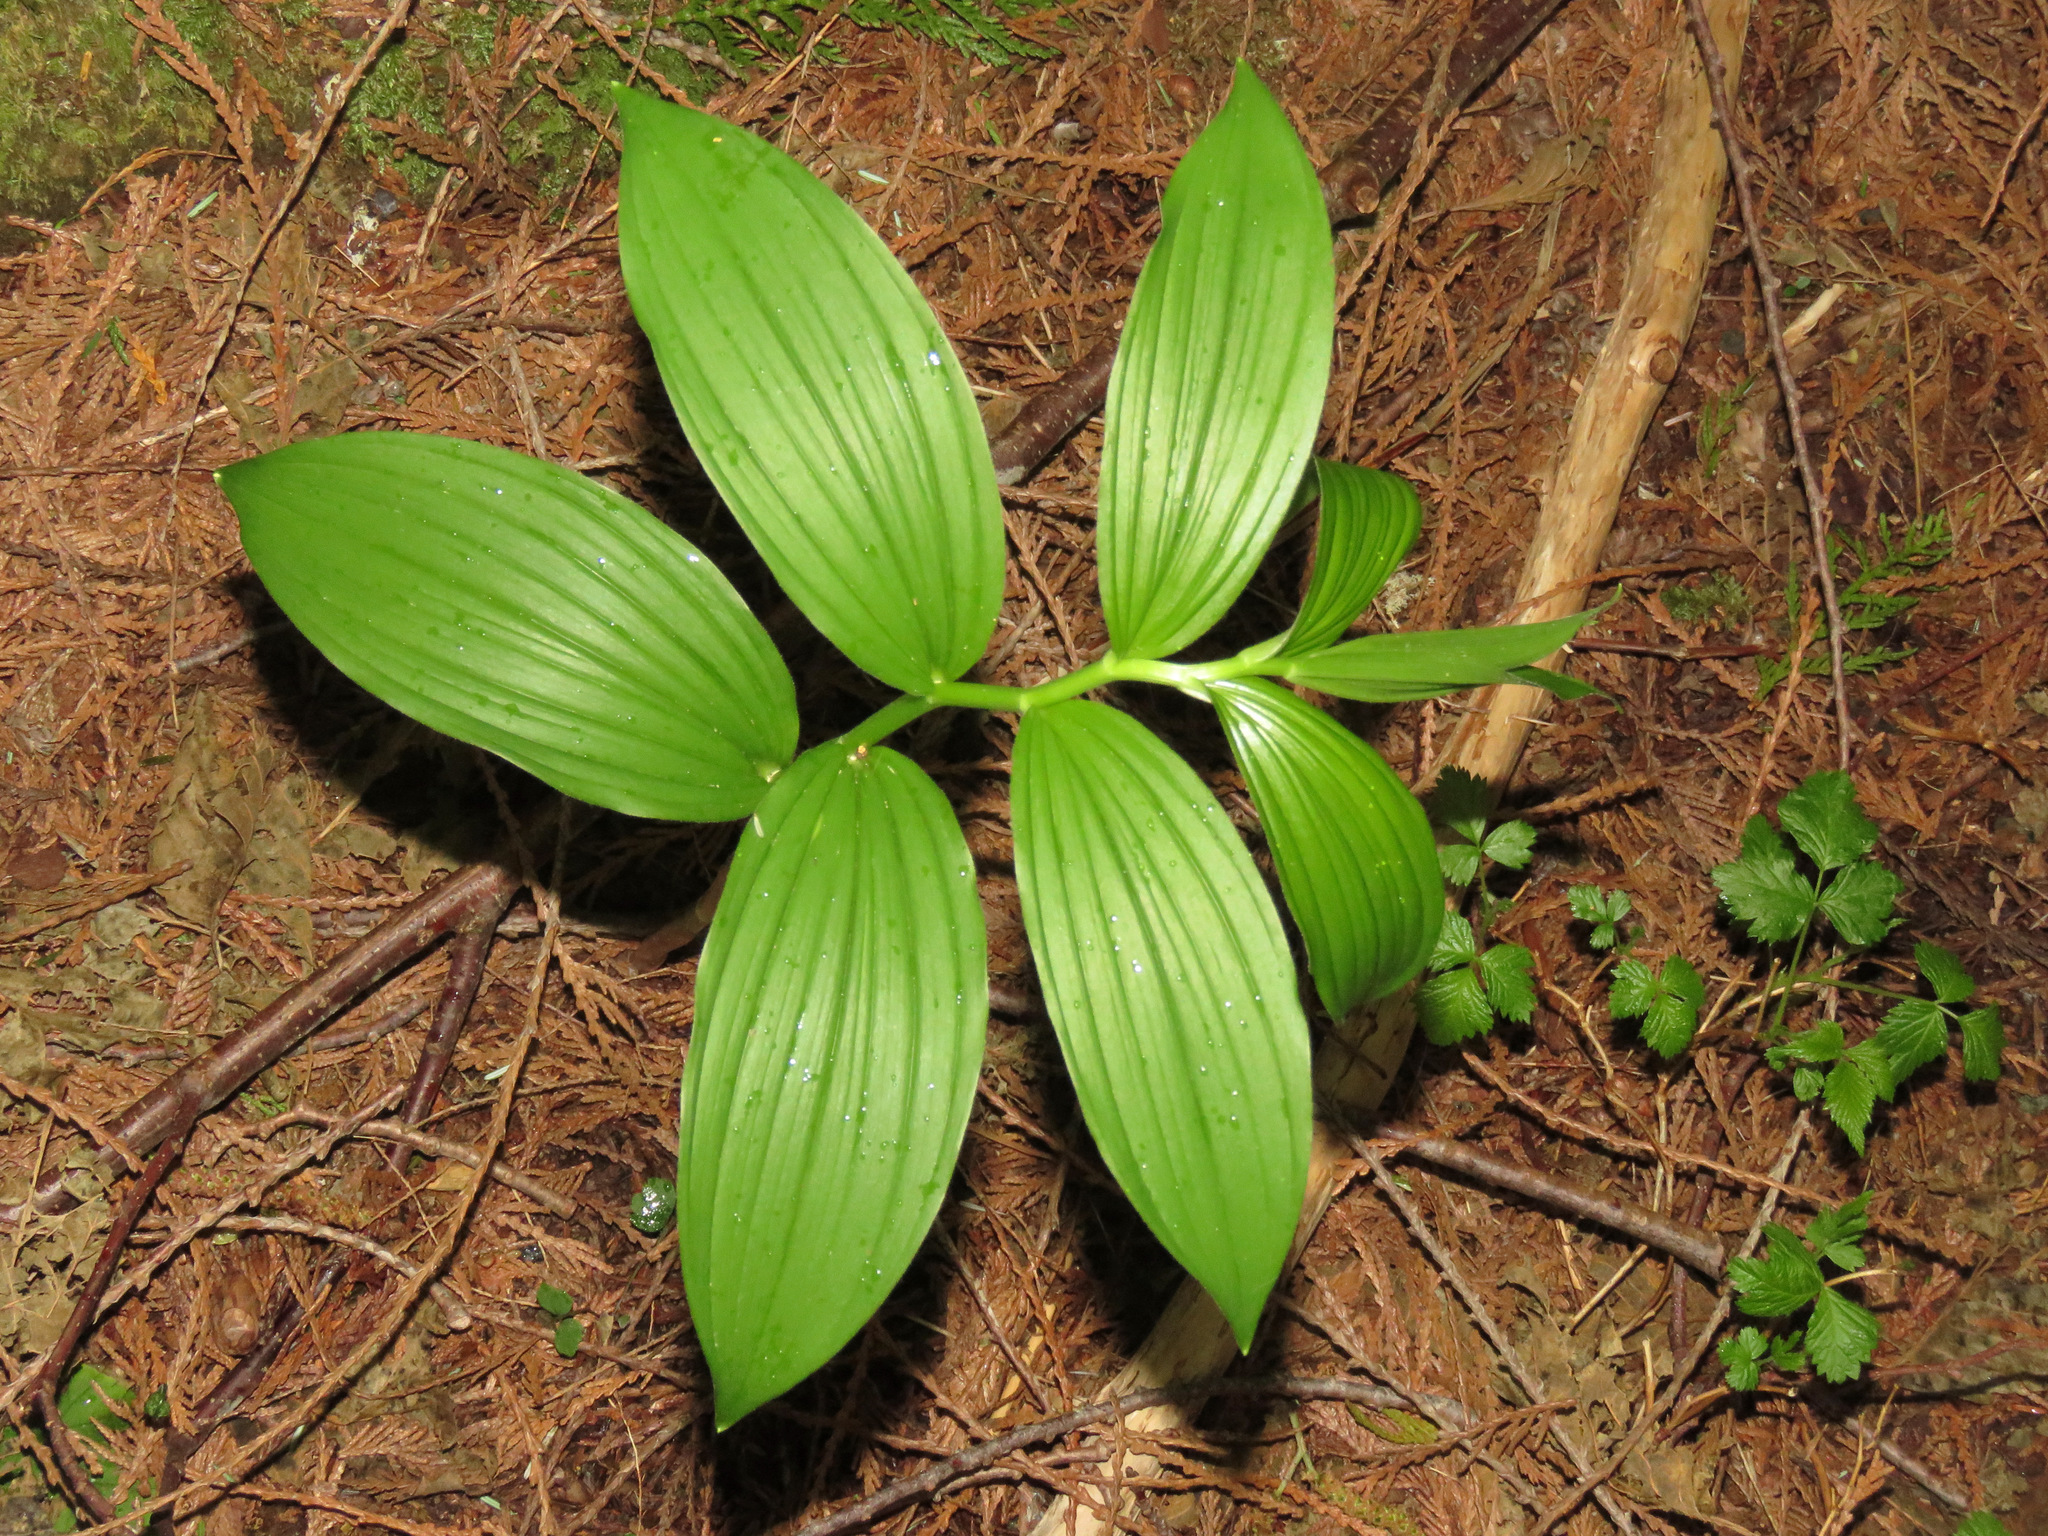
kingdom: Plantae
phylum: Tracheophyta
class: Liliopsida
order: Asparagales
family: Asparagaceae
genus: Maianthemum
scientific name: Maianthemum racemosum
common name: False spikenard
